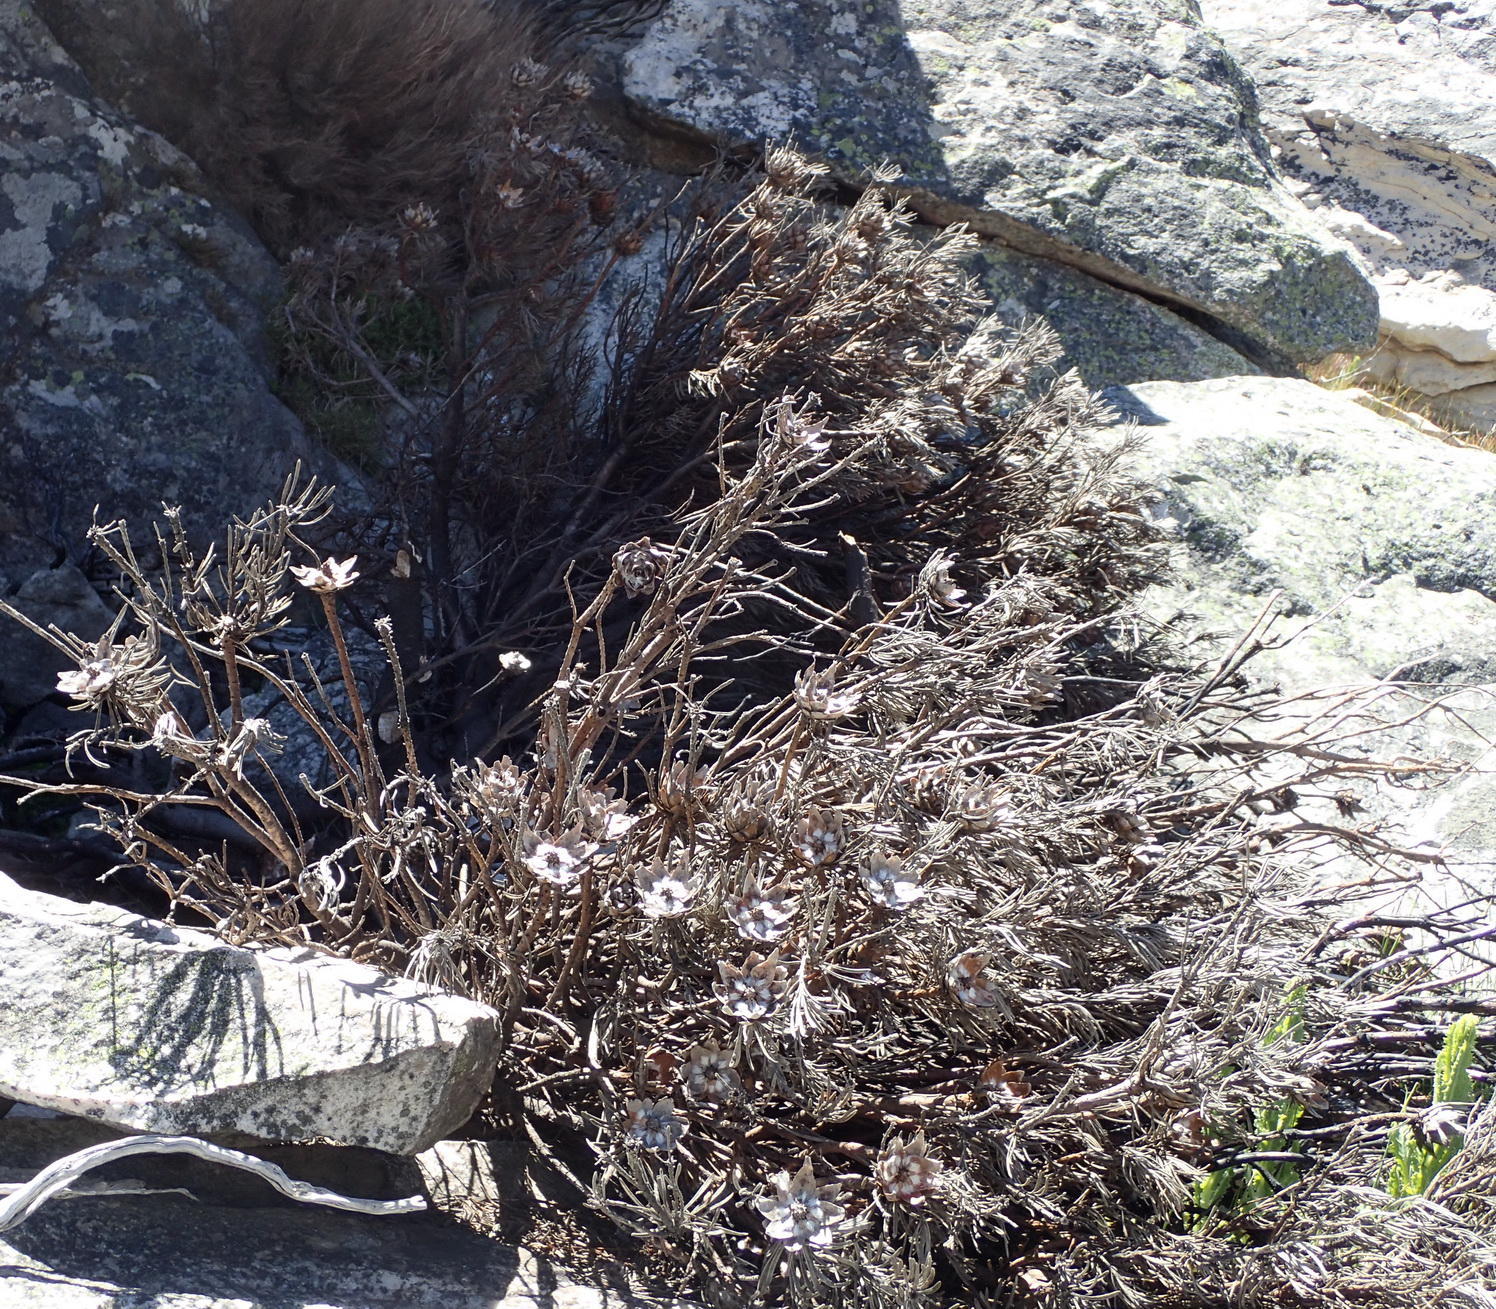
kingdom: Plantae
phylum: Tracheophyta
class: Magnoliopsida
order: Proteales
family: Proteaceae
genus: Leucadendron
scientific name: Leucadendron dregei
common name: Summit conebush
